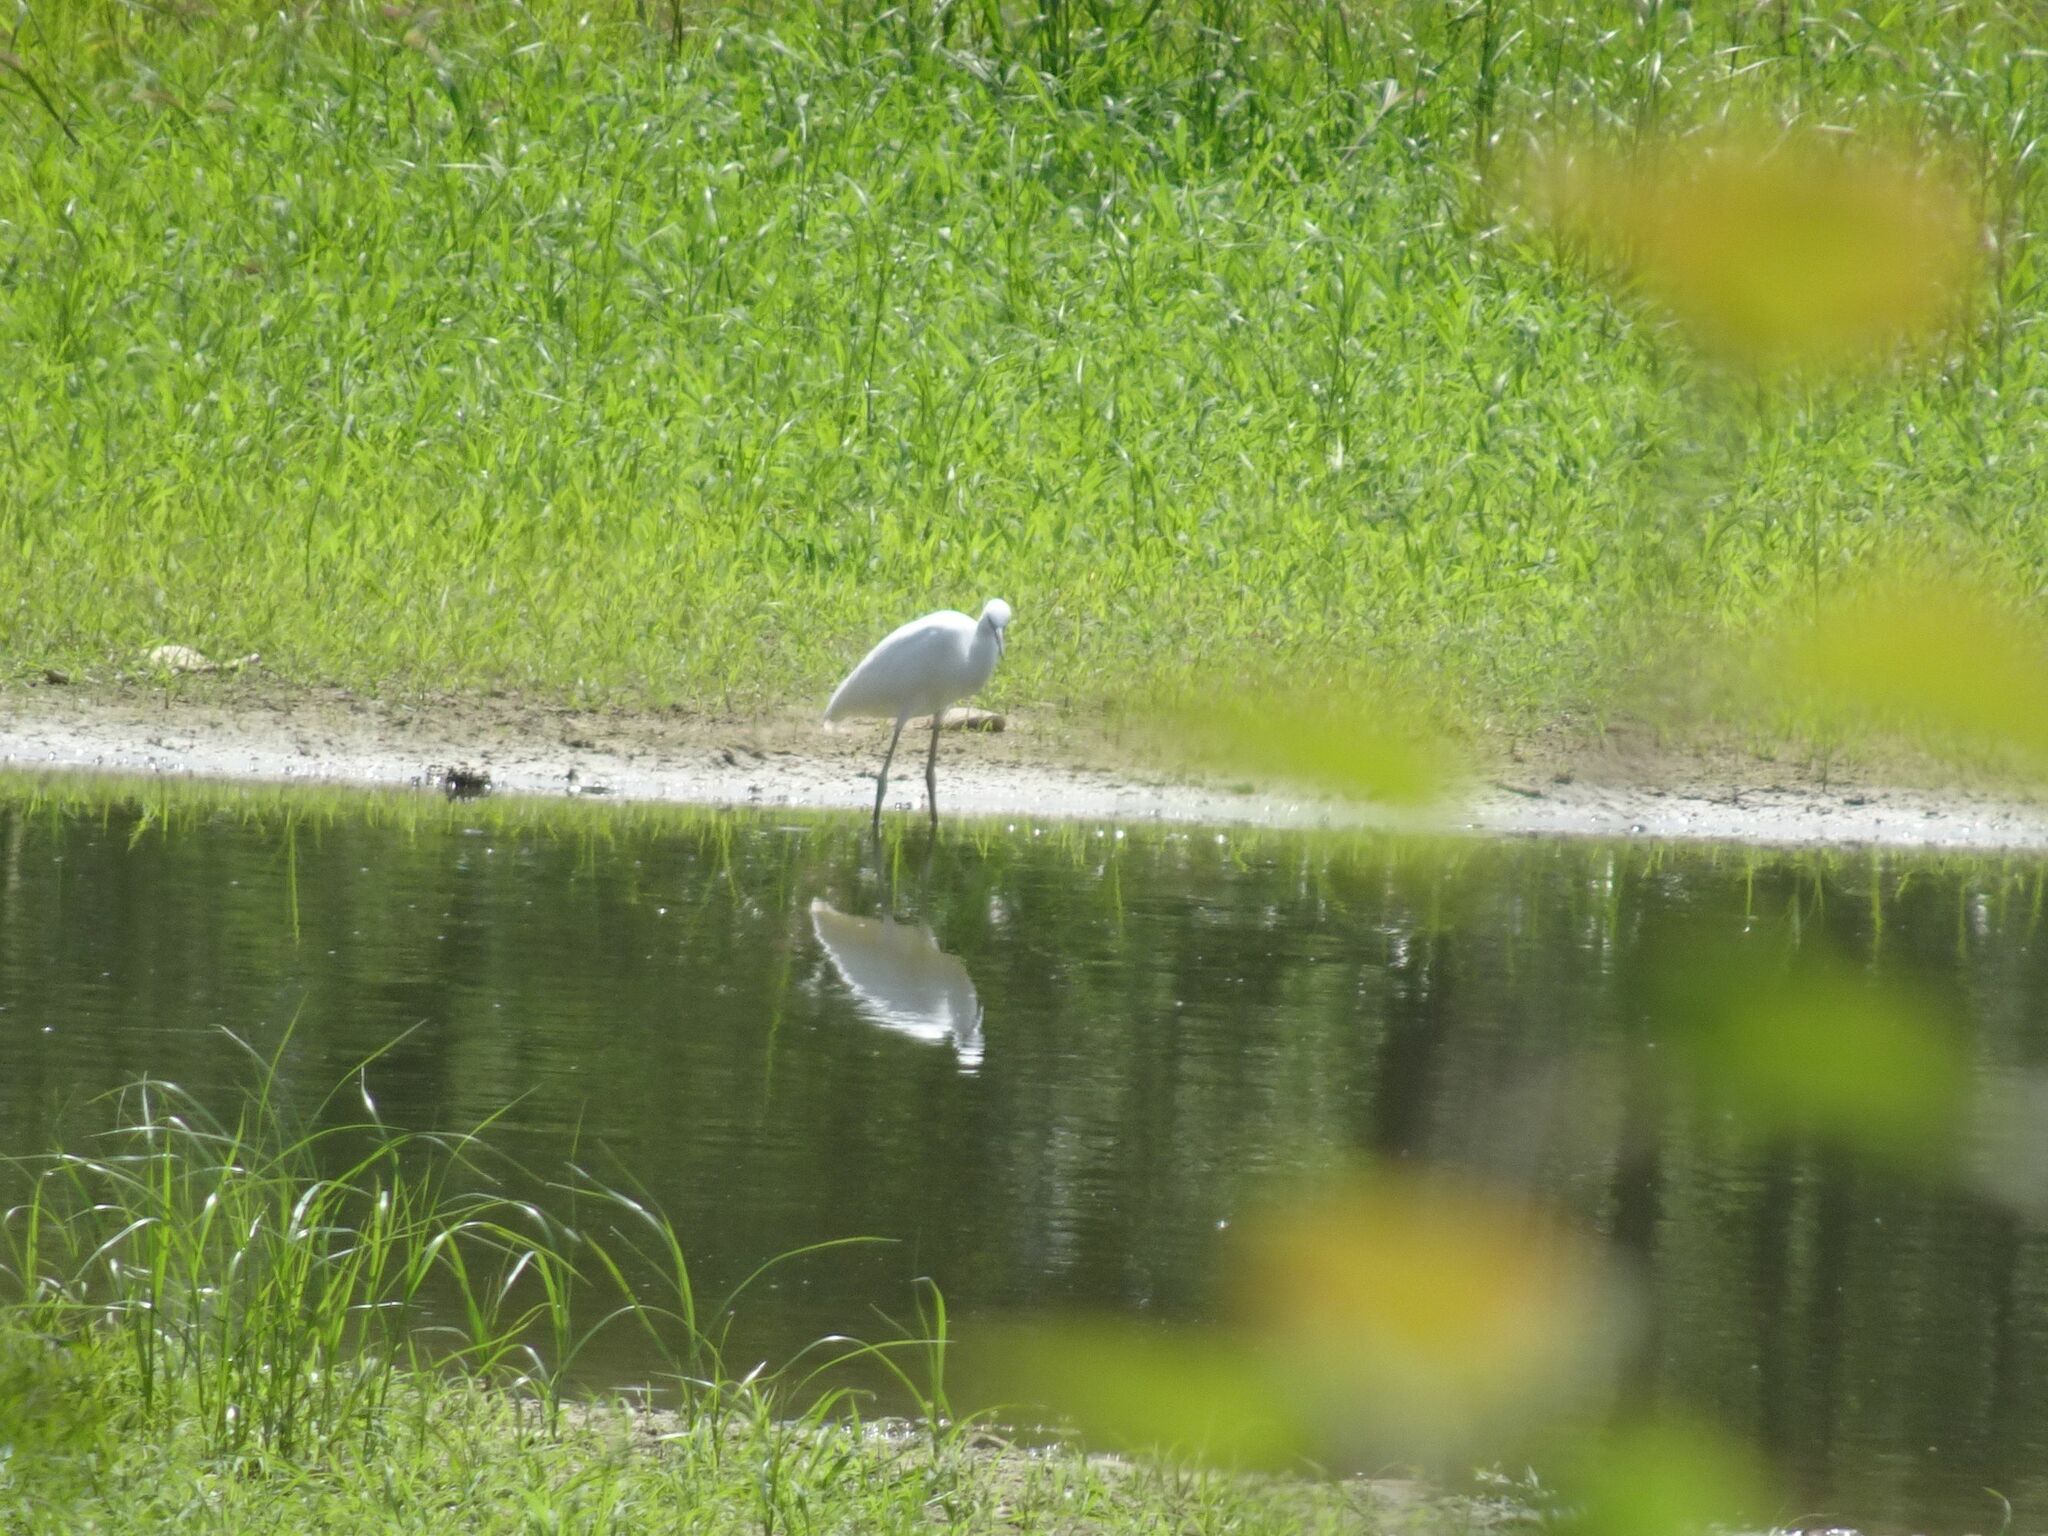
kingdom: Animalia
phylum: Chordata
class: Aves
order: Pelecaniformes
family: Ardeidae
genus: Egretta
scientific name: Egretta garzetta
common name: Little egret
